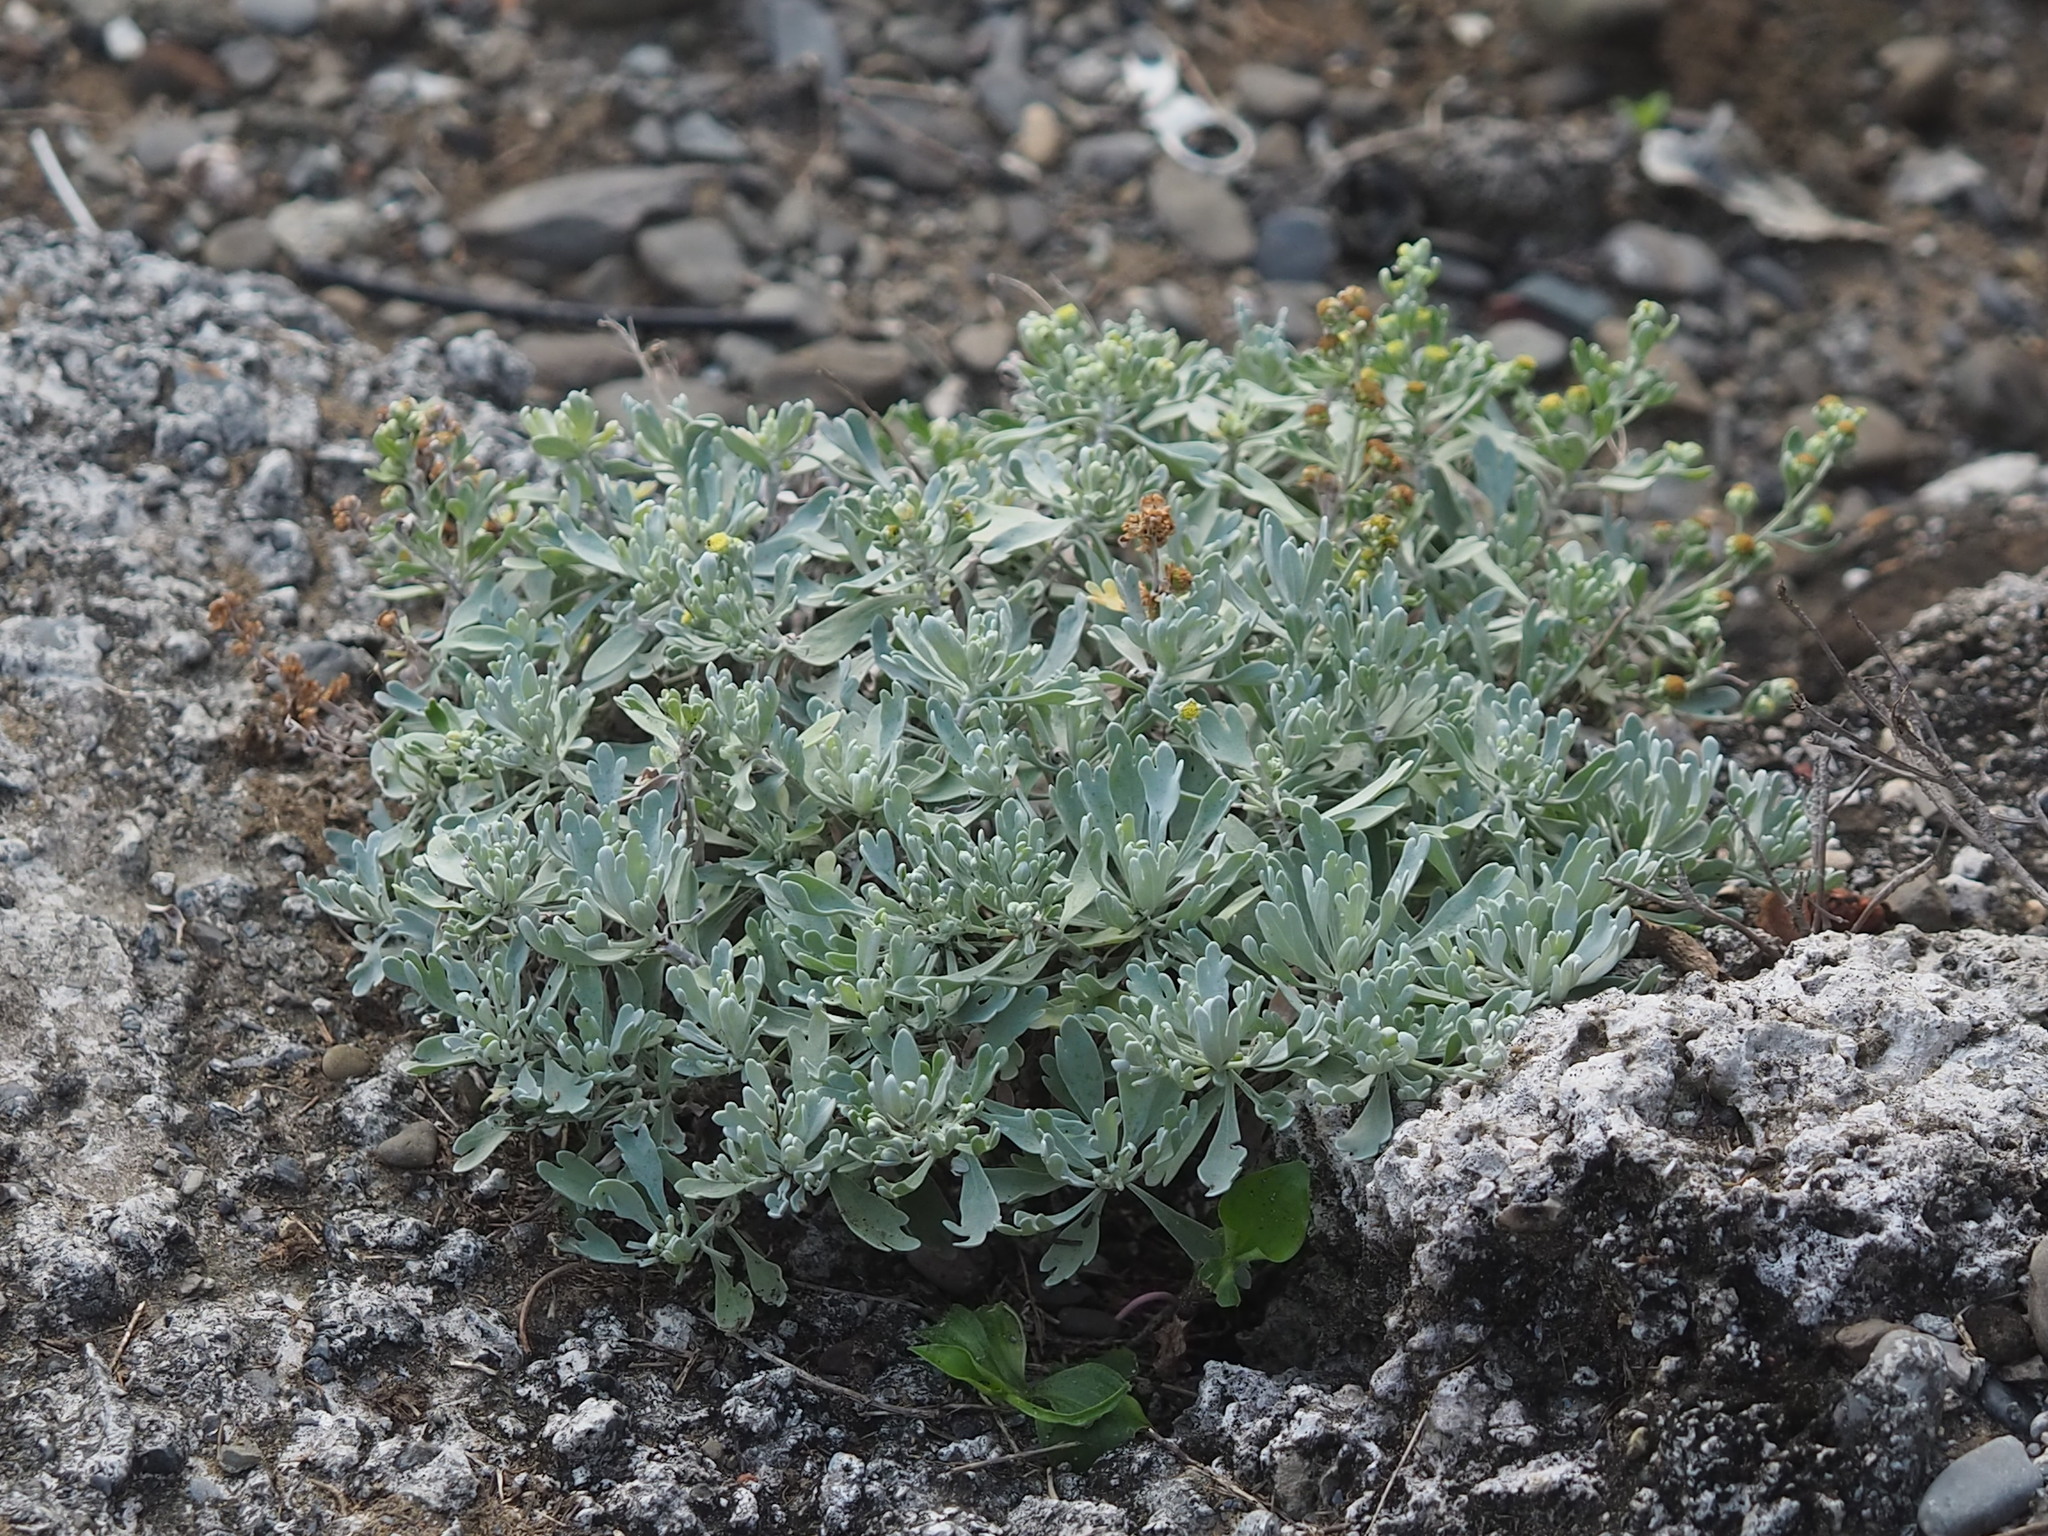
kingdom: Plantae
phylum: Tracheophyta
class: Magnoliopsida
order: Asterales
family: Asteraceae
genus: Crossostephium
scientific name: Crossostephium chinense
